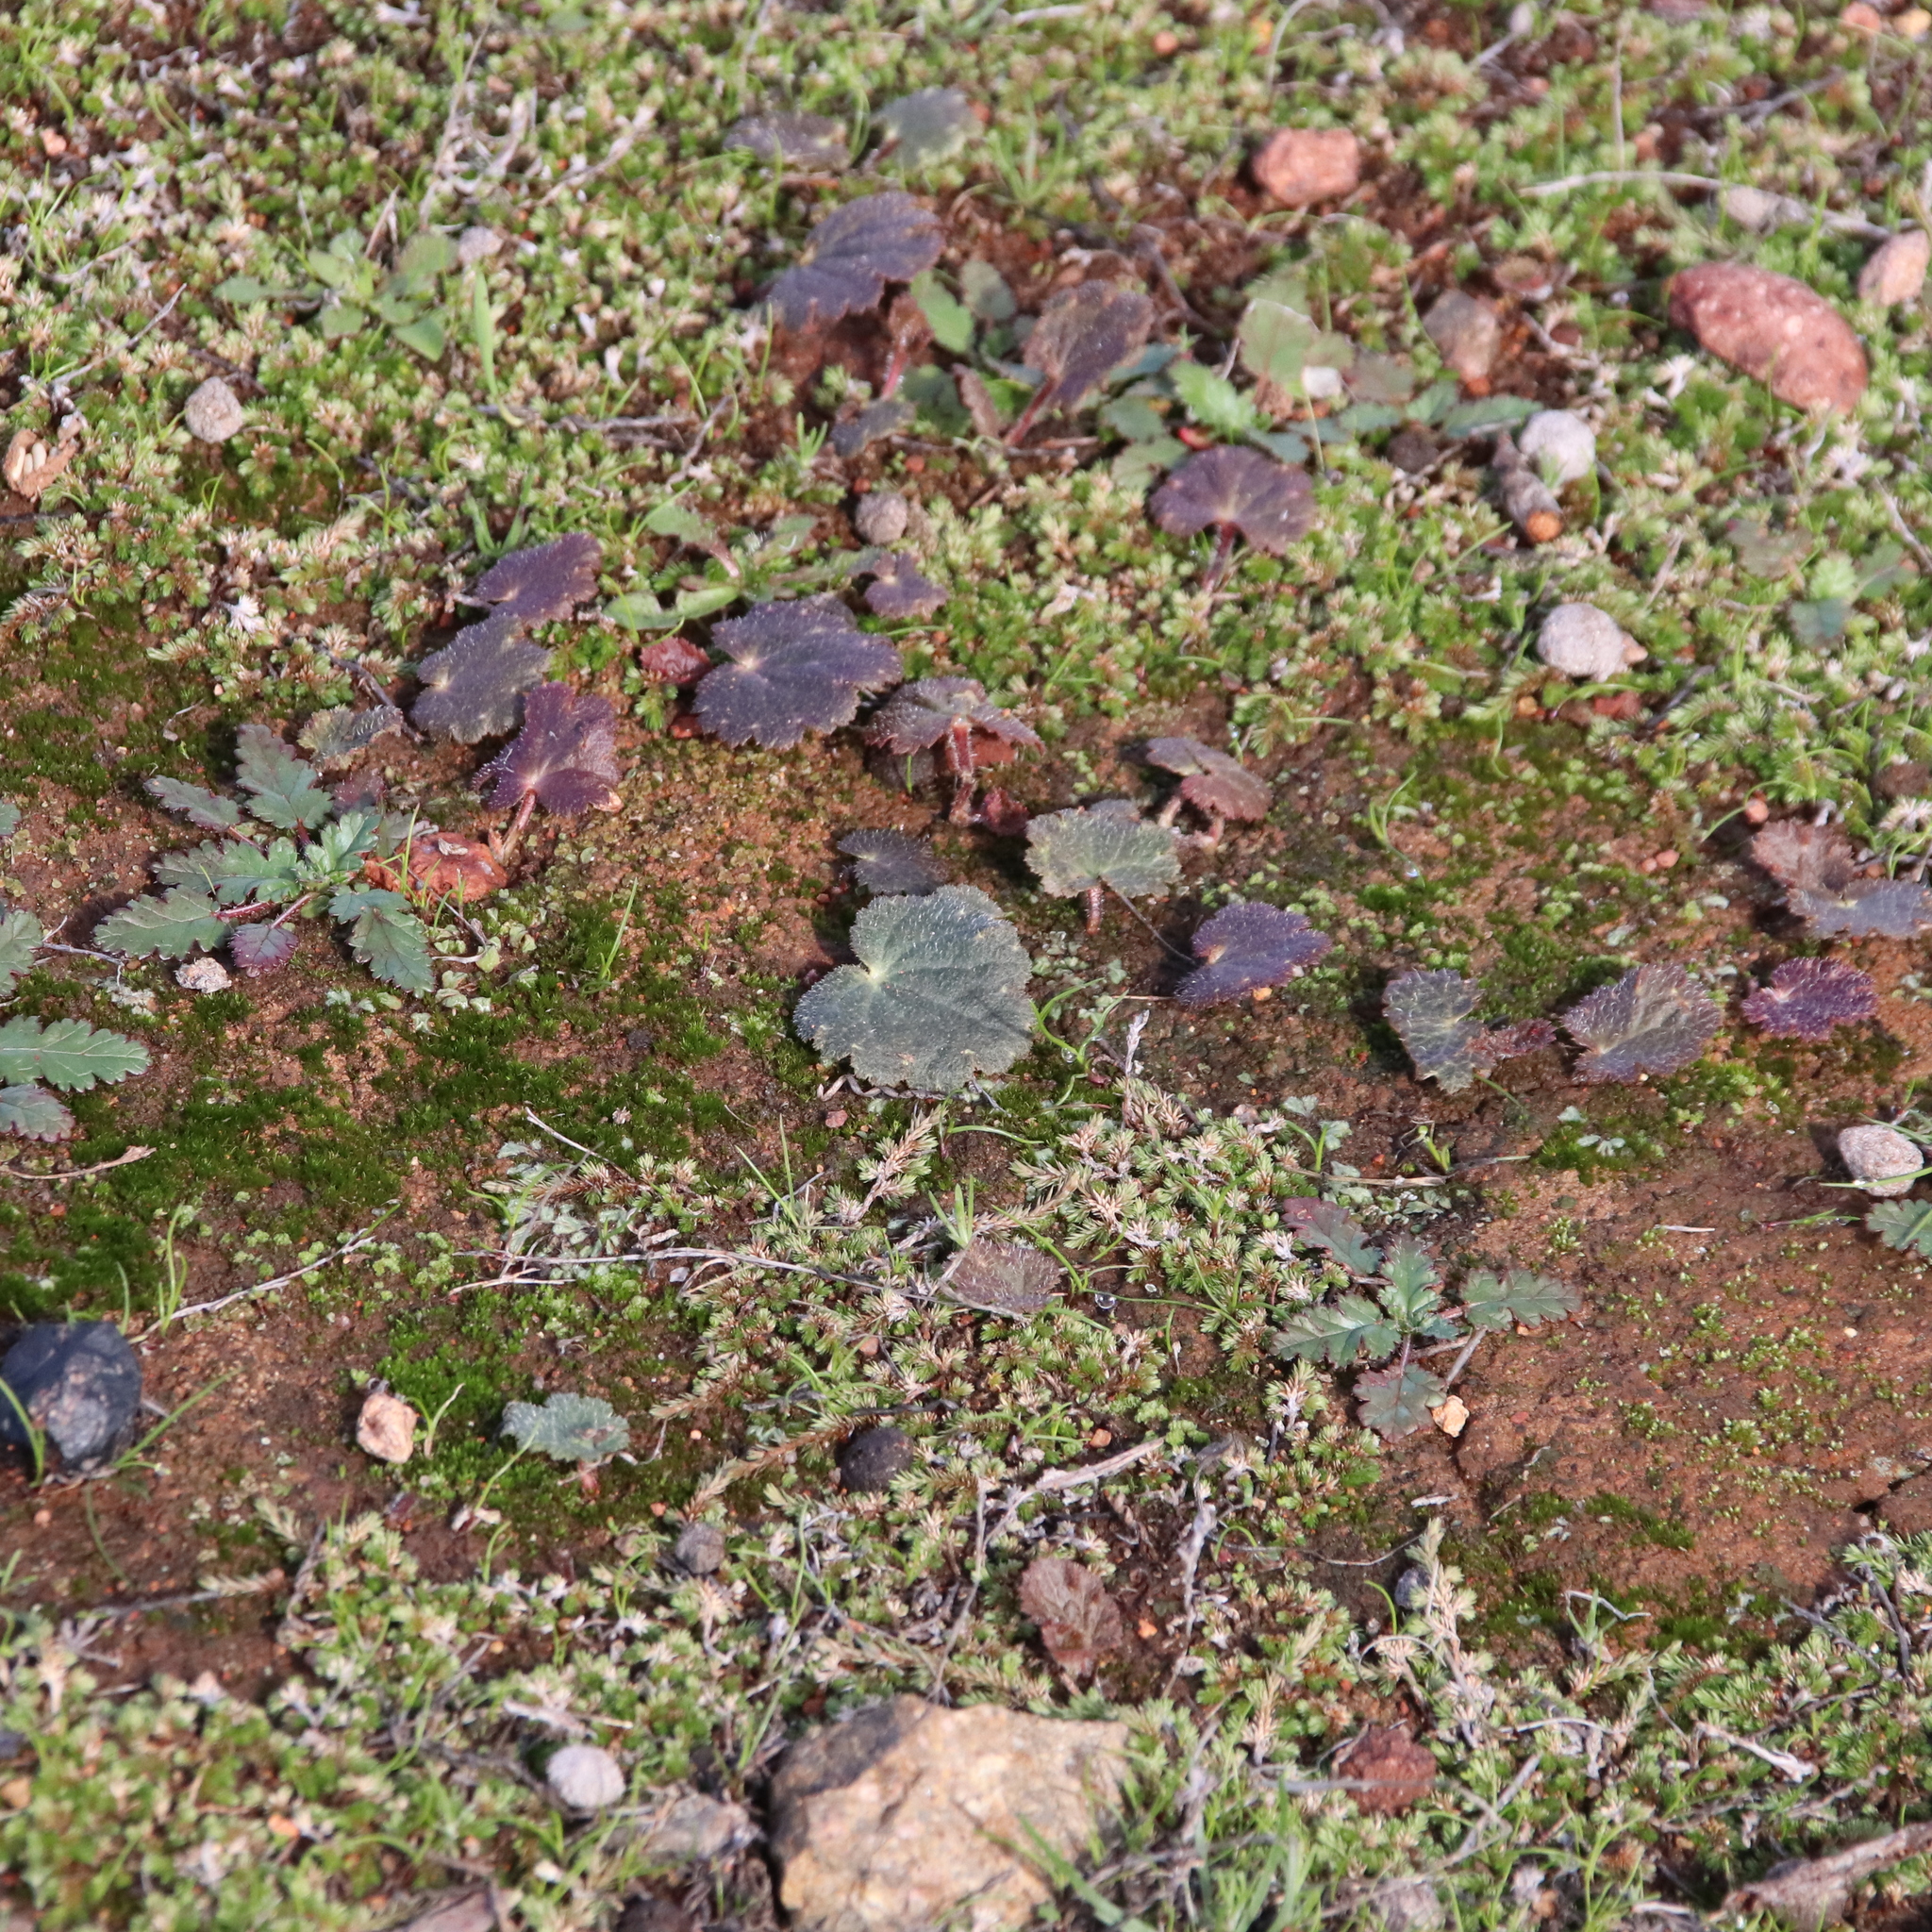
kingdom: Plantae
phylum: Tracheophyta
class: Magnoliopsida
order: Saxifragales
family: Saxifragaceae
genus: Jepsonia
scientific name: Jepsonia parryi
